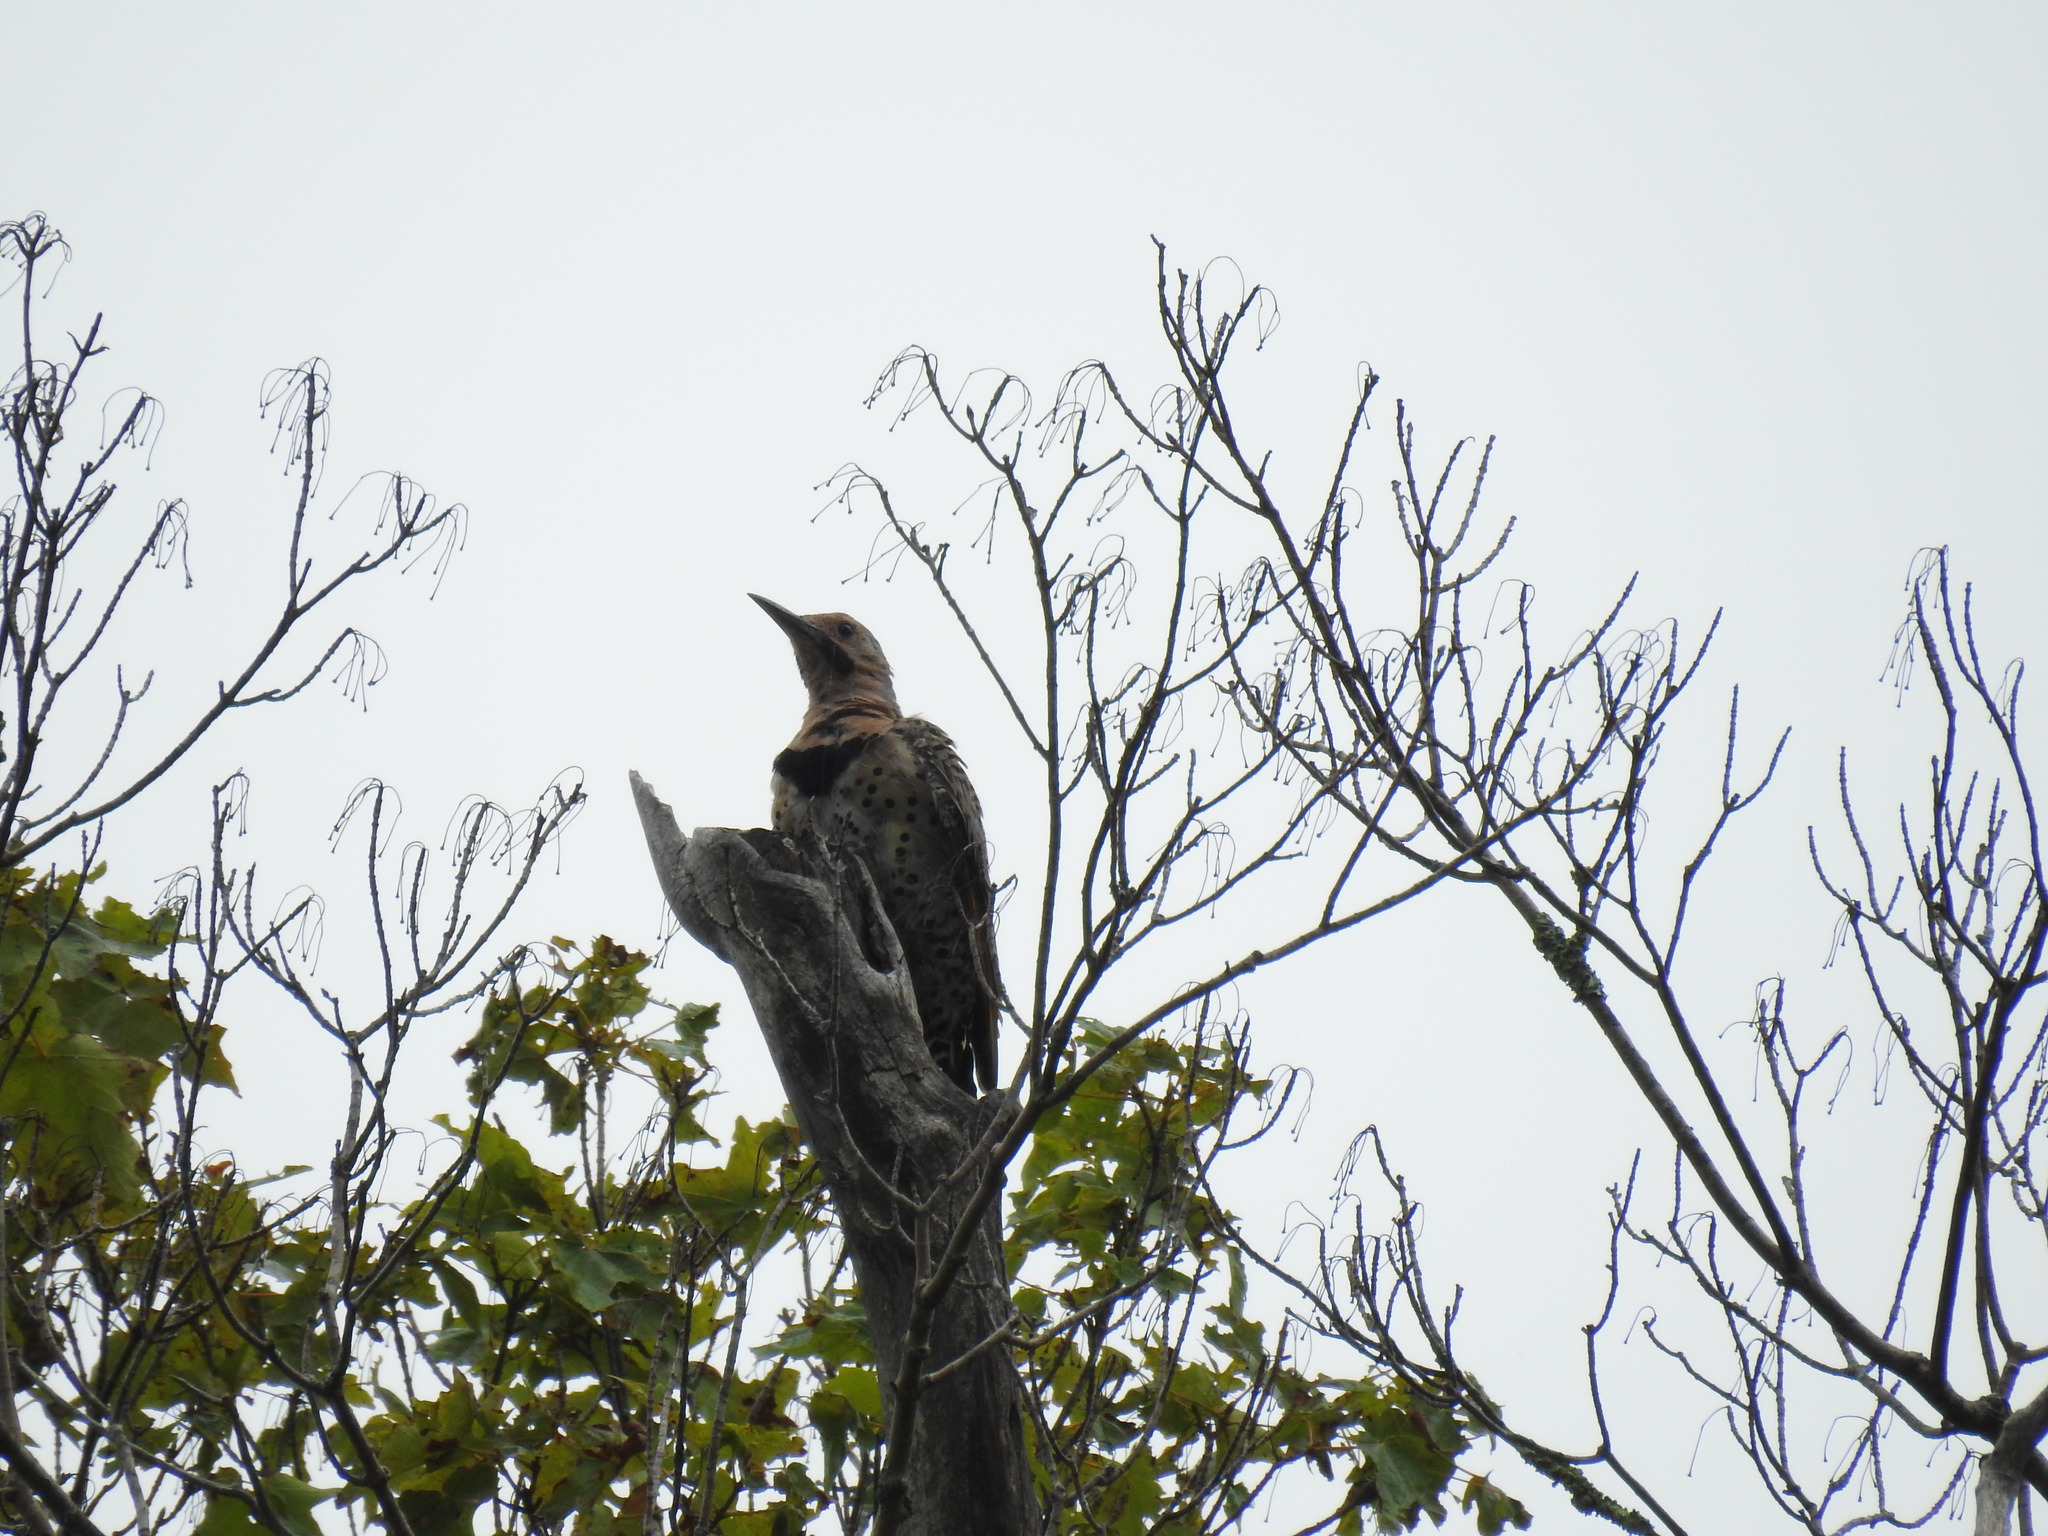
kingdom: Animalia
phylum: Chordata
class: Aves
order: Piciformes
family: Picidae
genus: Colaptes
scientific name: Colaptes auratus
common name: Northern flicker
